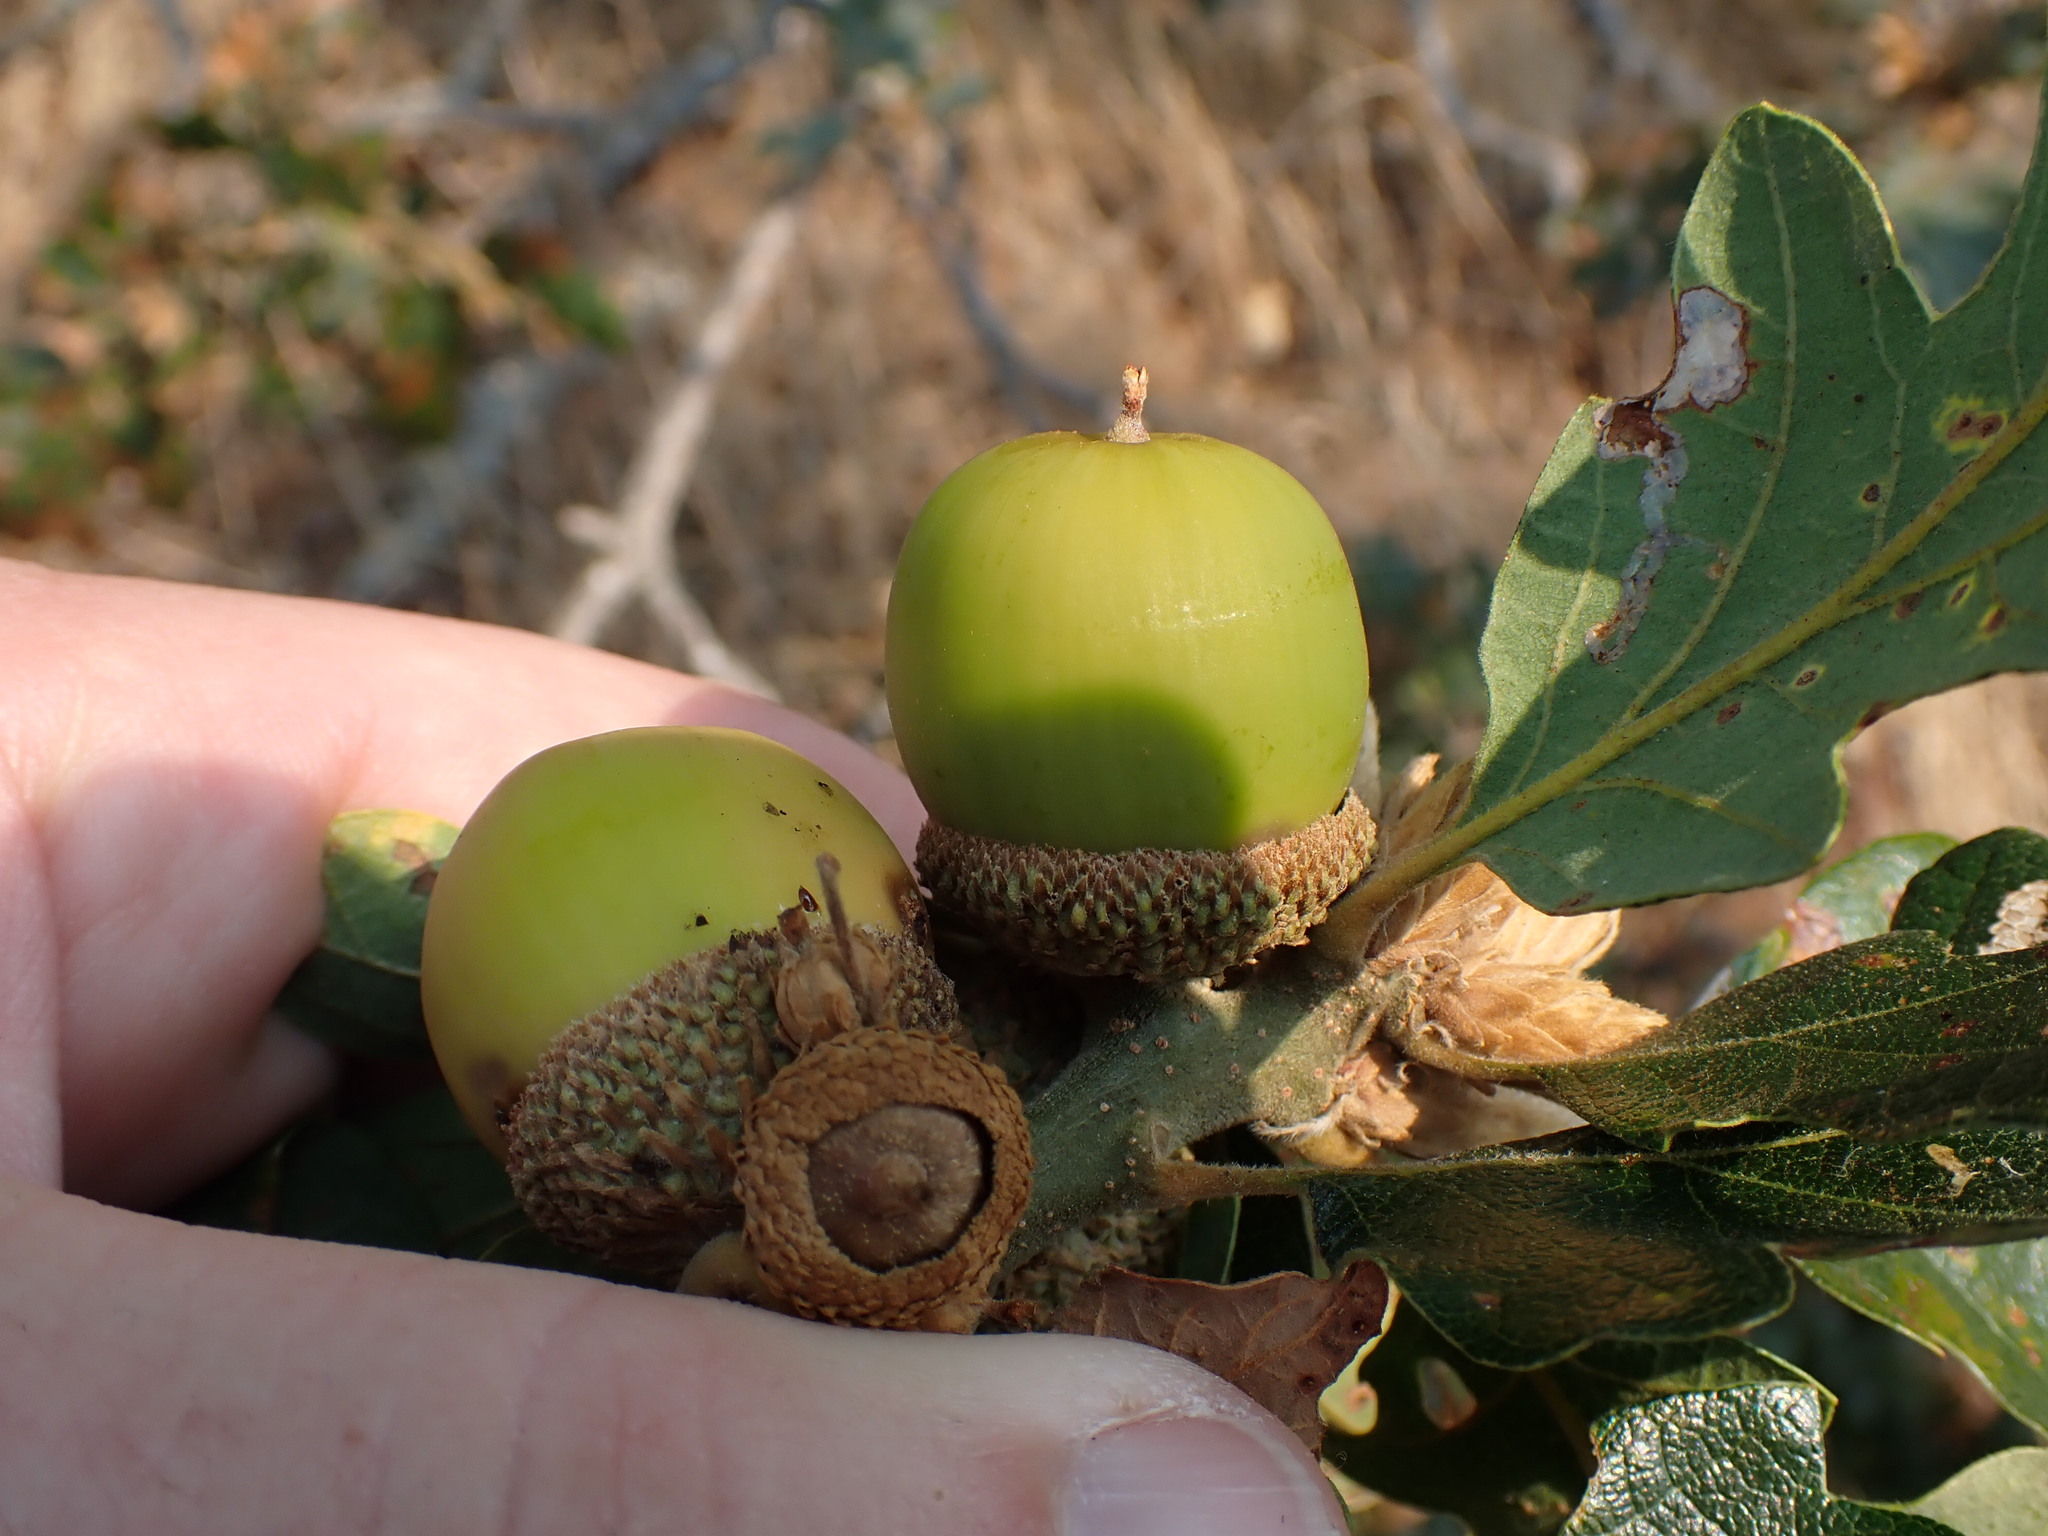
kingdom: Plantae
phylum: Tracheophyta
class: Magnoliopsida
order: Fagales
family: Fagaceae
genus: Quercus
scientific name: Quercus garryana
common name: Garry oak
